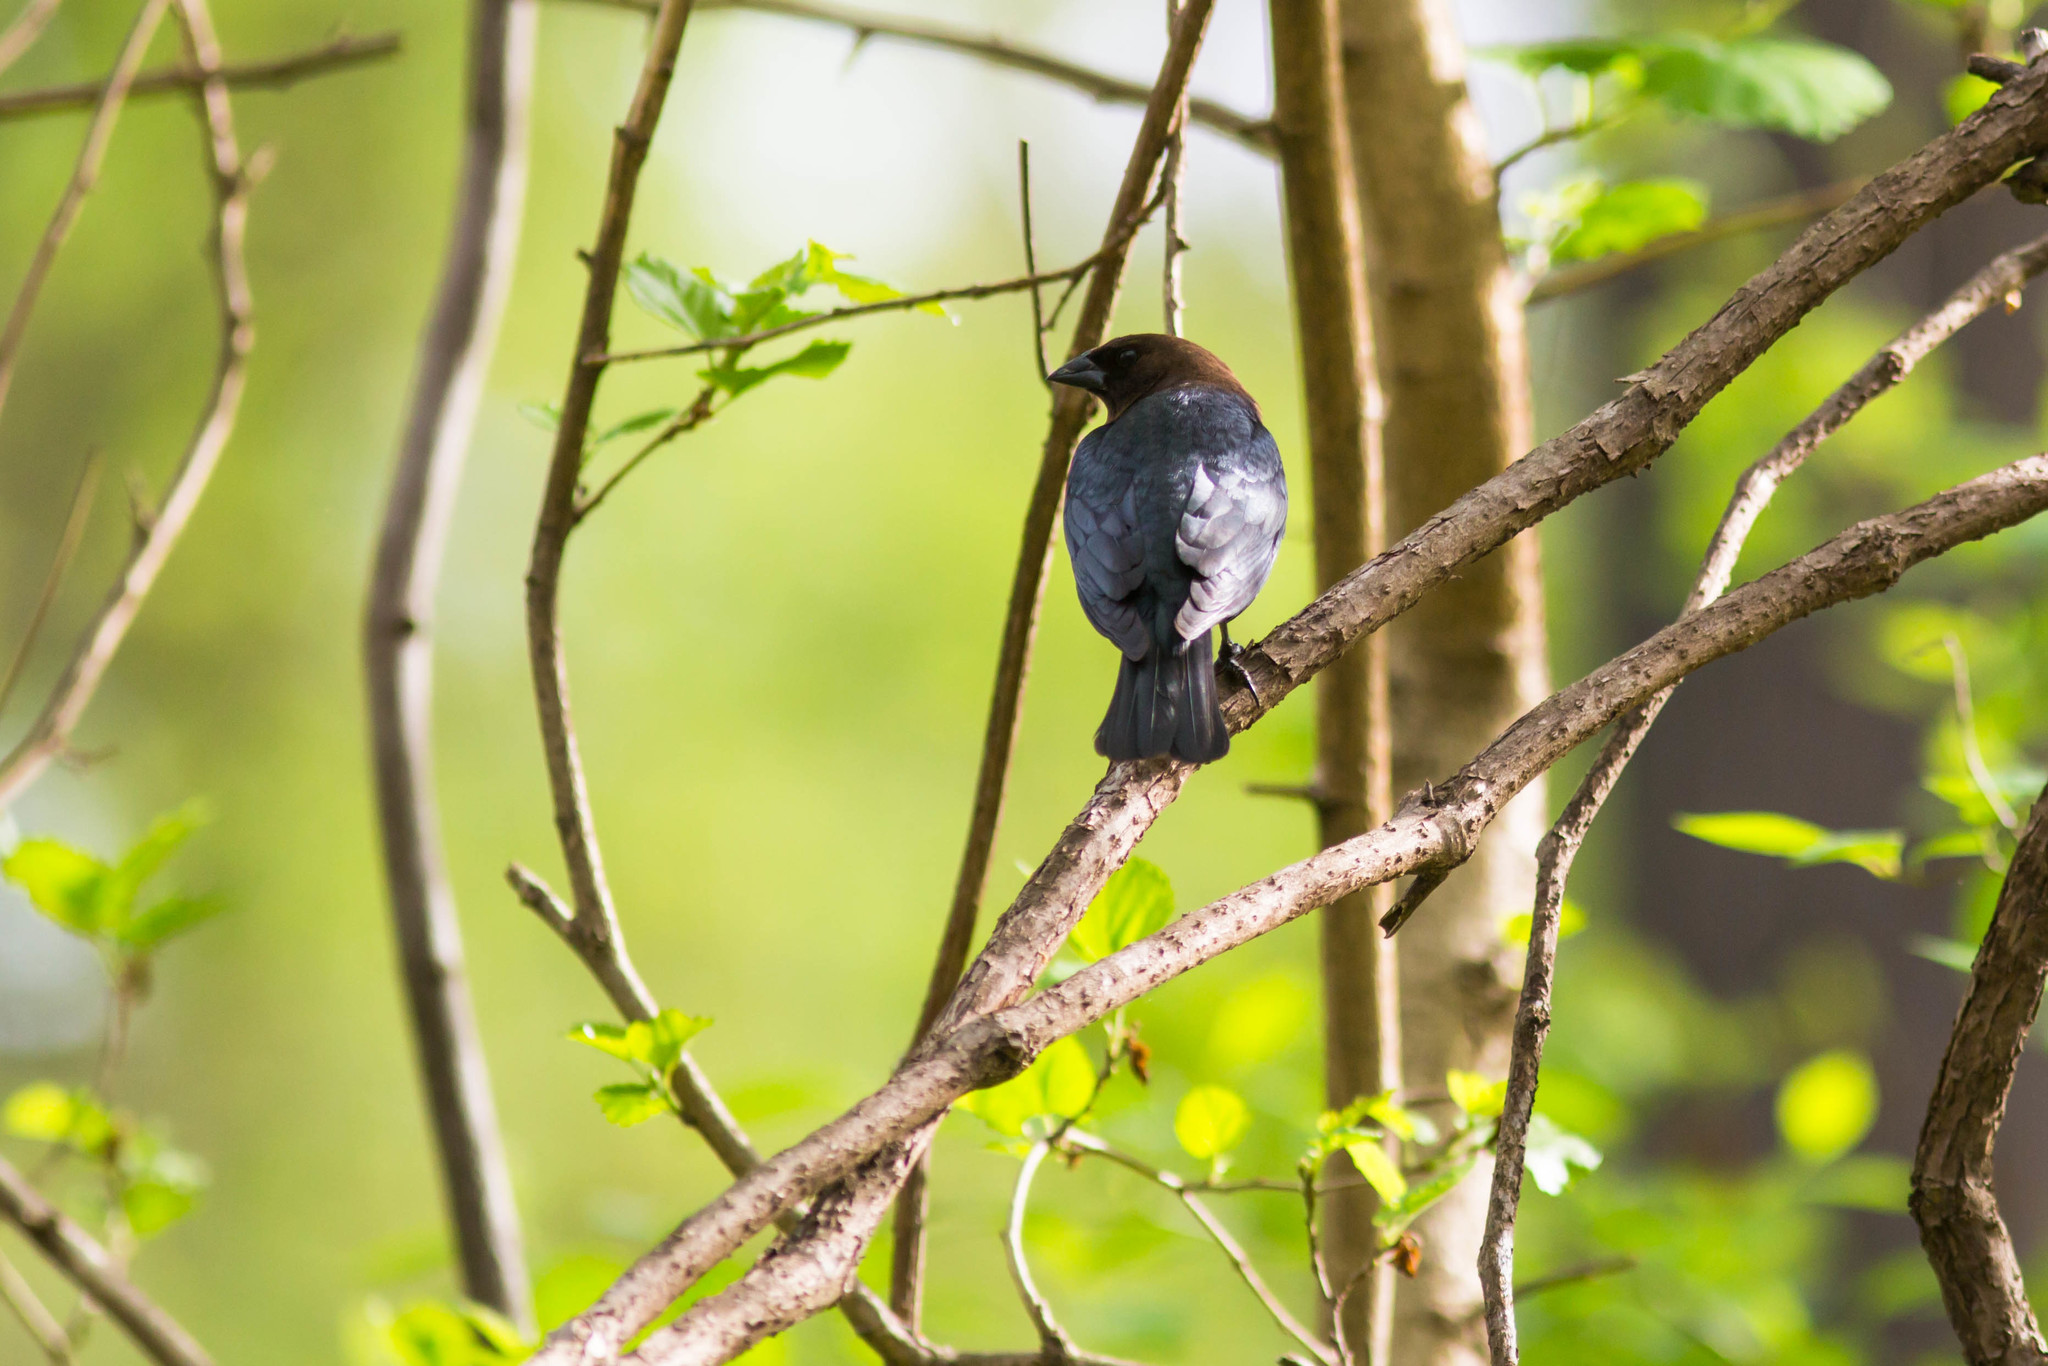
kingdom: Animalia
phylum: Chordata
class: Aves
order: Passeriformes
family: Icteridae
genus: Molothrus
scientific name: Molothrus ater
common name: Brown-headed cowbird
